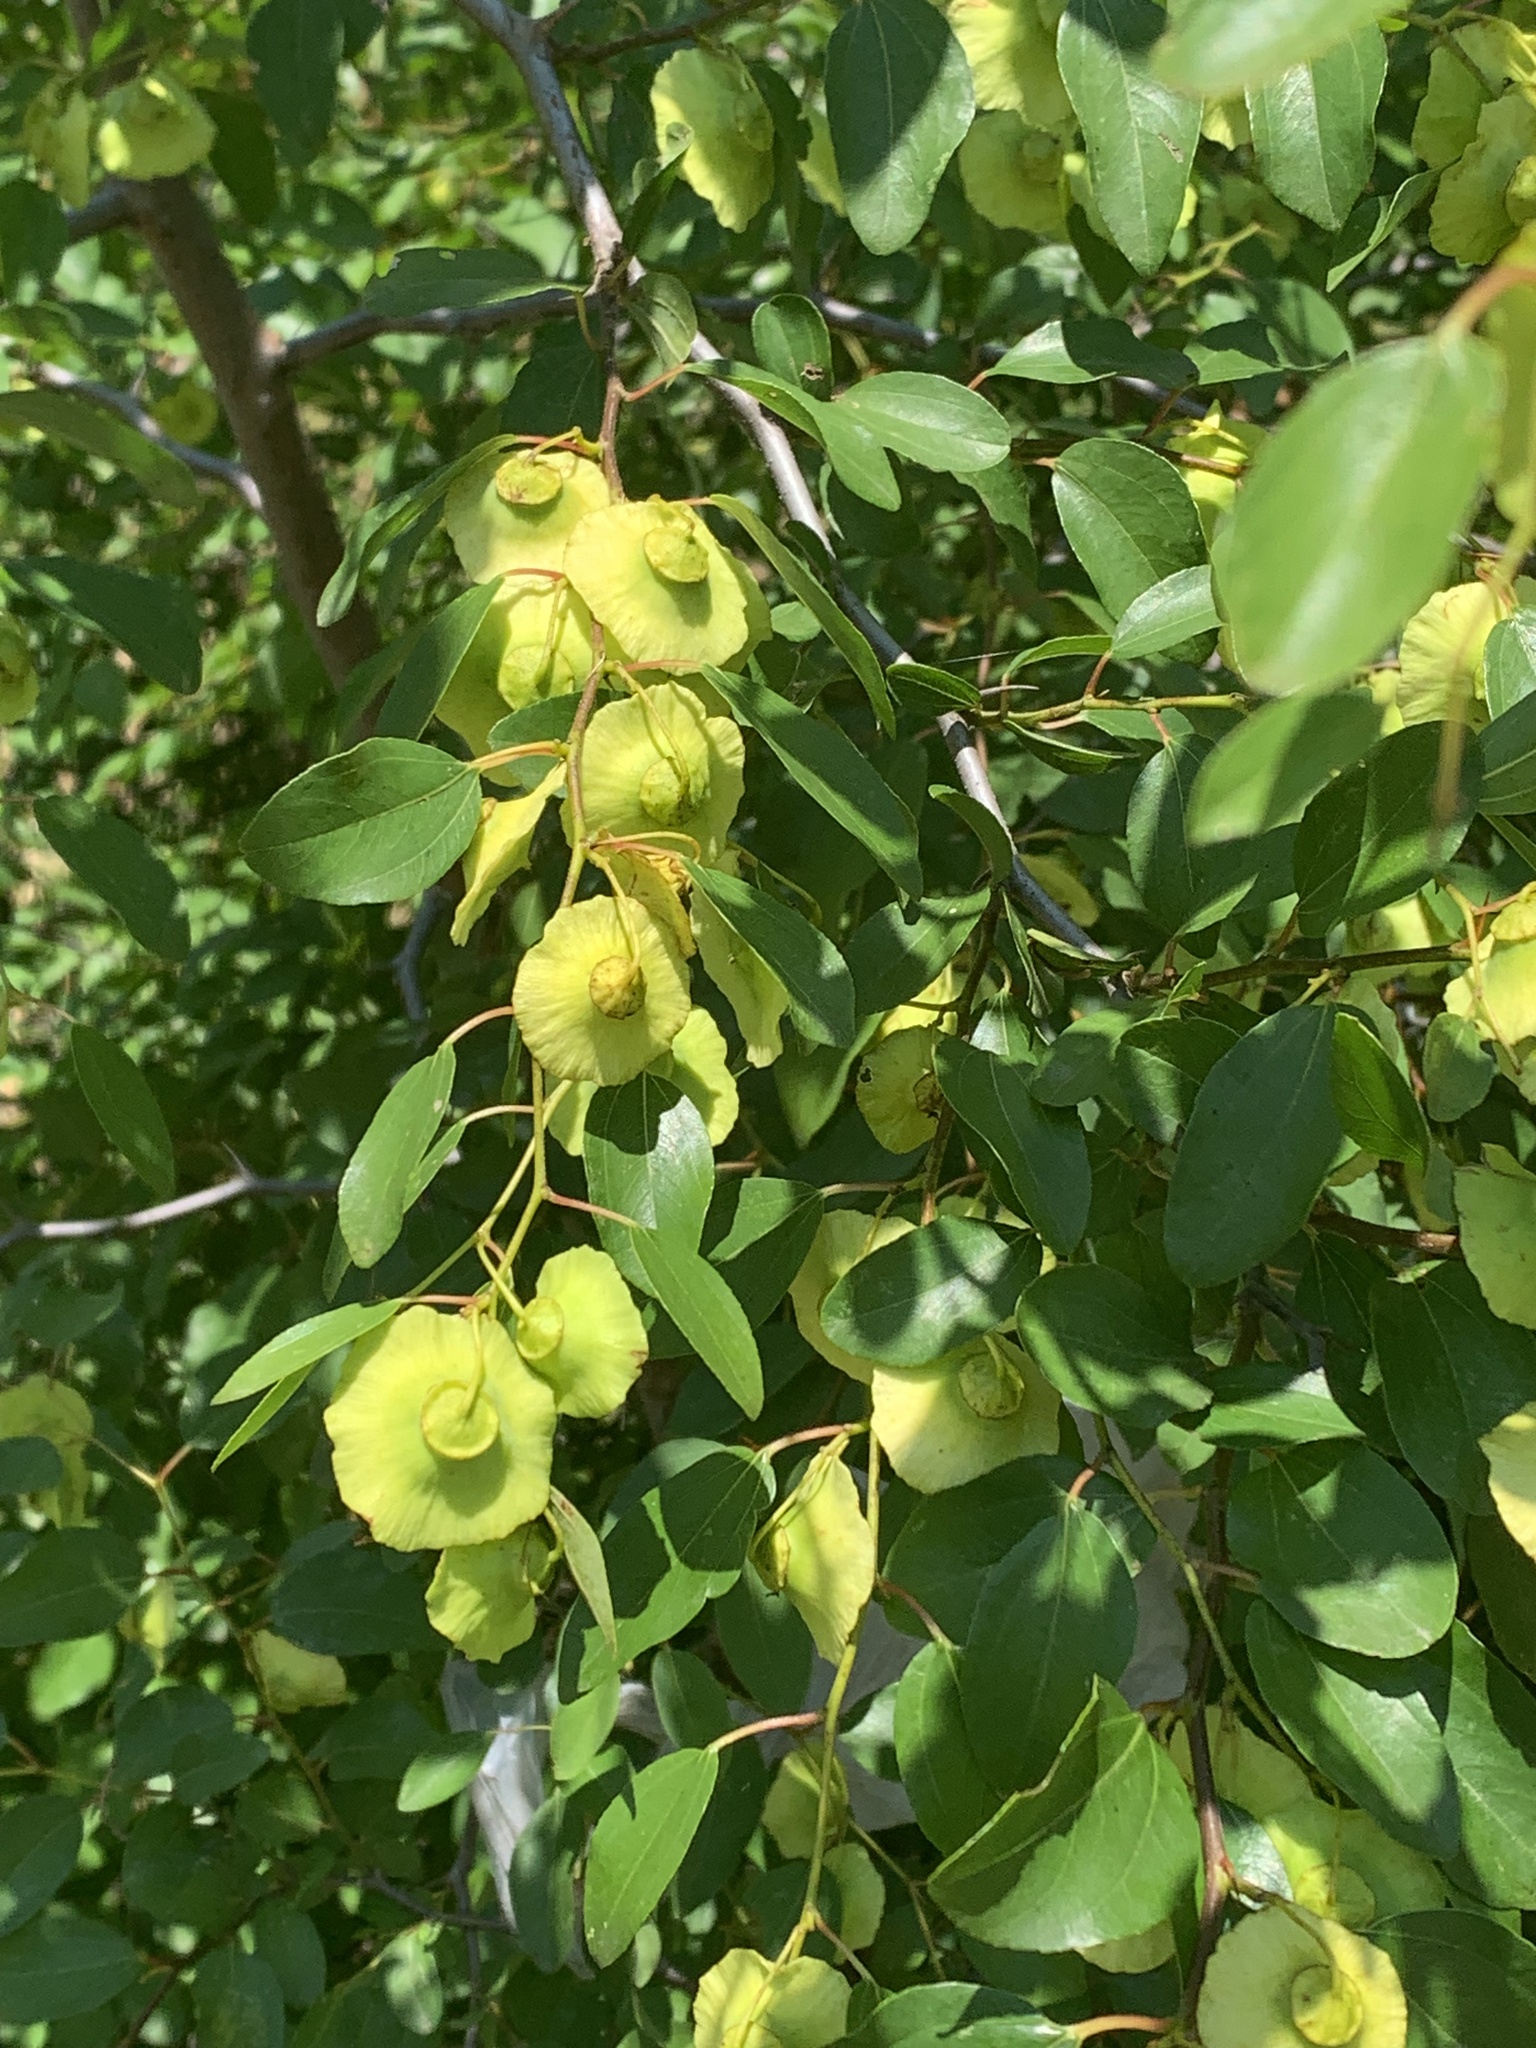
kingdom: Plantae
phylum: Tracheophyta
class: Magnoliopsida
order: Rosales
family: Rhamnaceae
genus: Paliurus
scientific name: Paliurus spina-christi
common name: Jeruselem thorn
